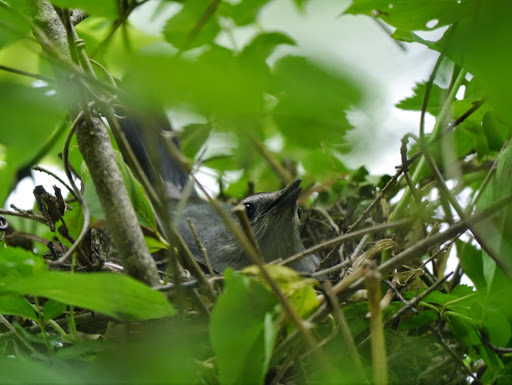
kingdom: Animalia
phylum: Chordata
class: Aves
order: Passeriformes
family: Mimidae
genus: Dumetella
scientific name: Dumetella carolinensis
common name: Gray catbird
